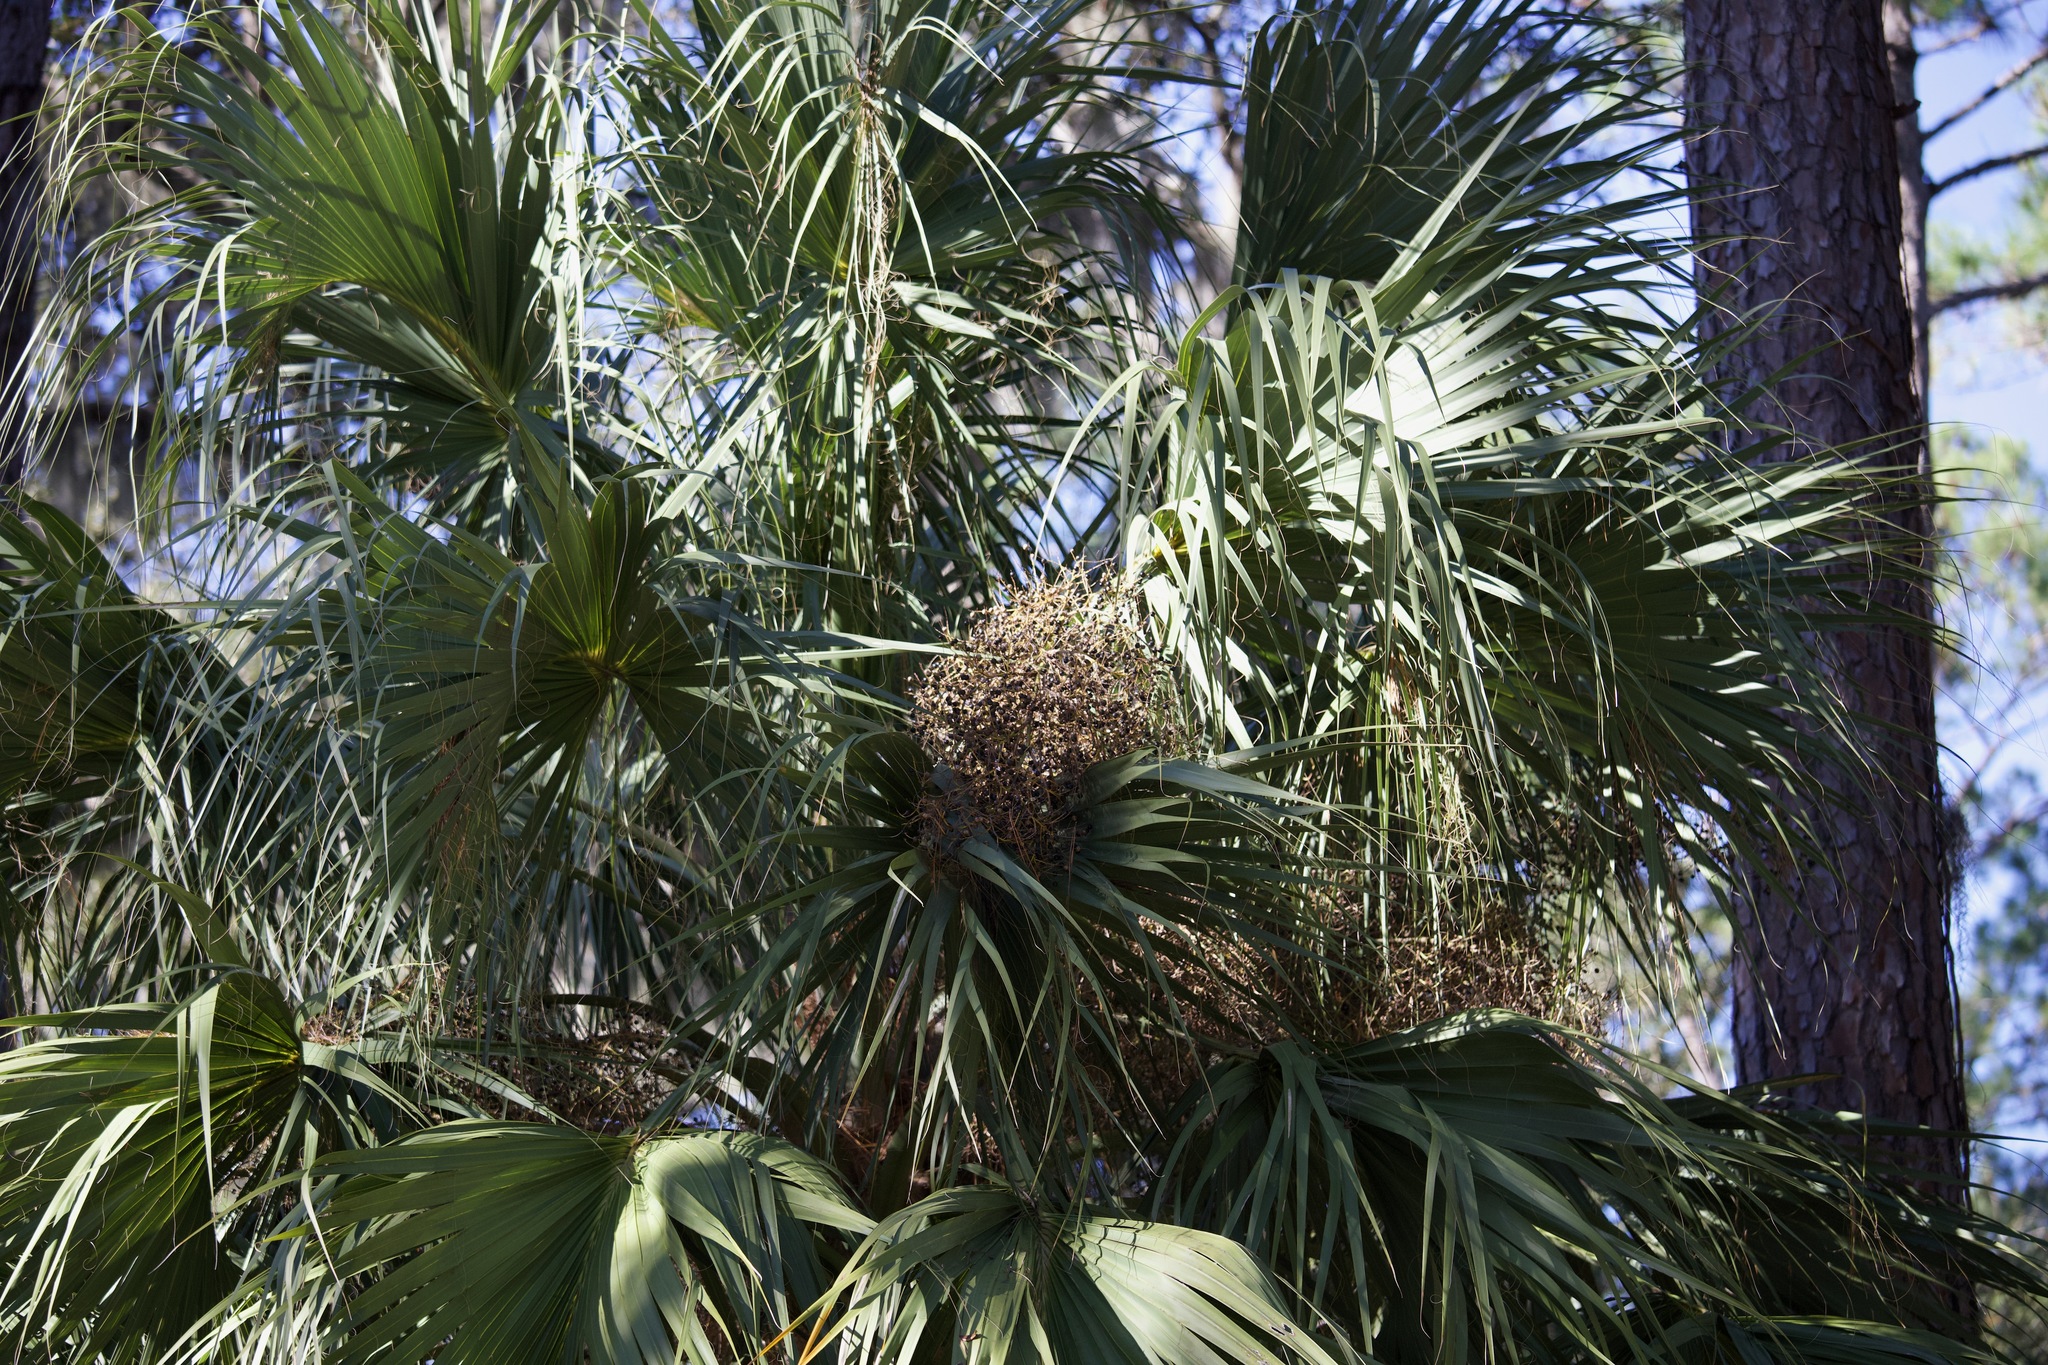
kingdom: Plantae
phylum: Tracheophyta
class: Liliopsida
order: Arecales
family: Arecaceae
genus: Sabal
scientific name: Sabal palmetto
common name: Blue palmetto
